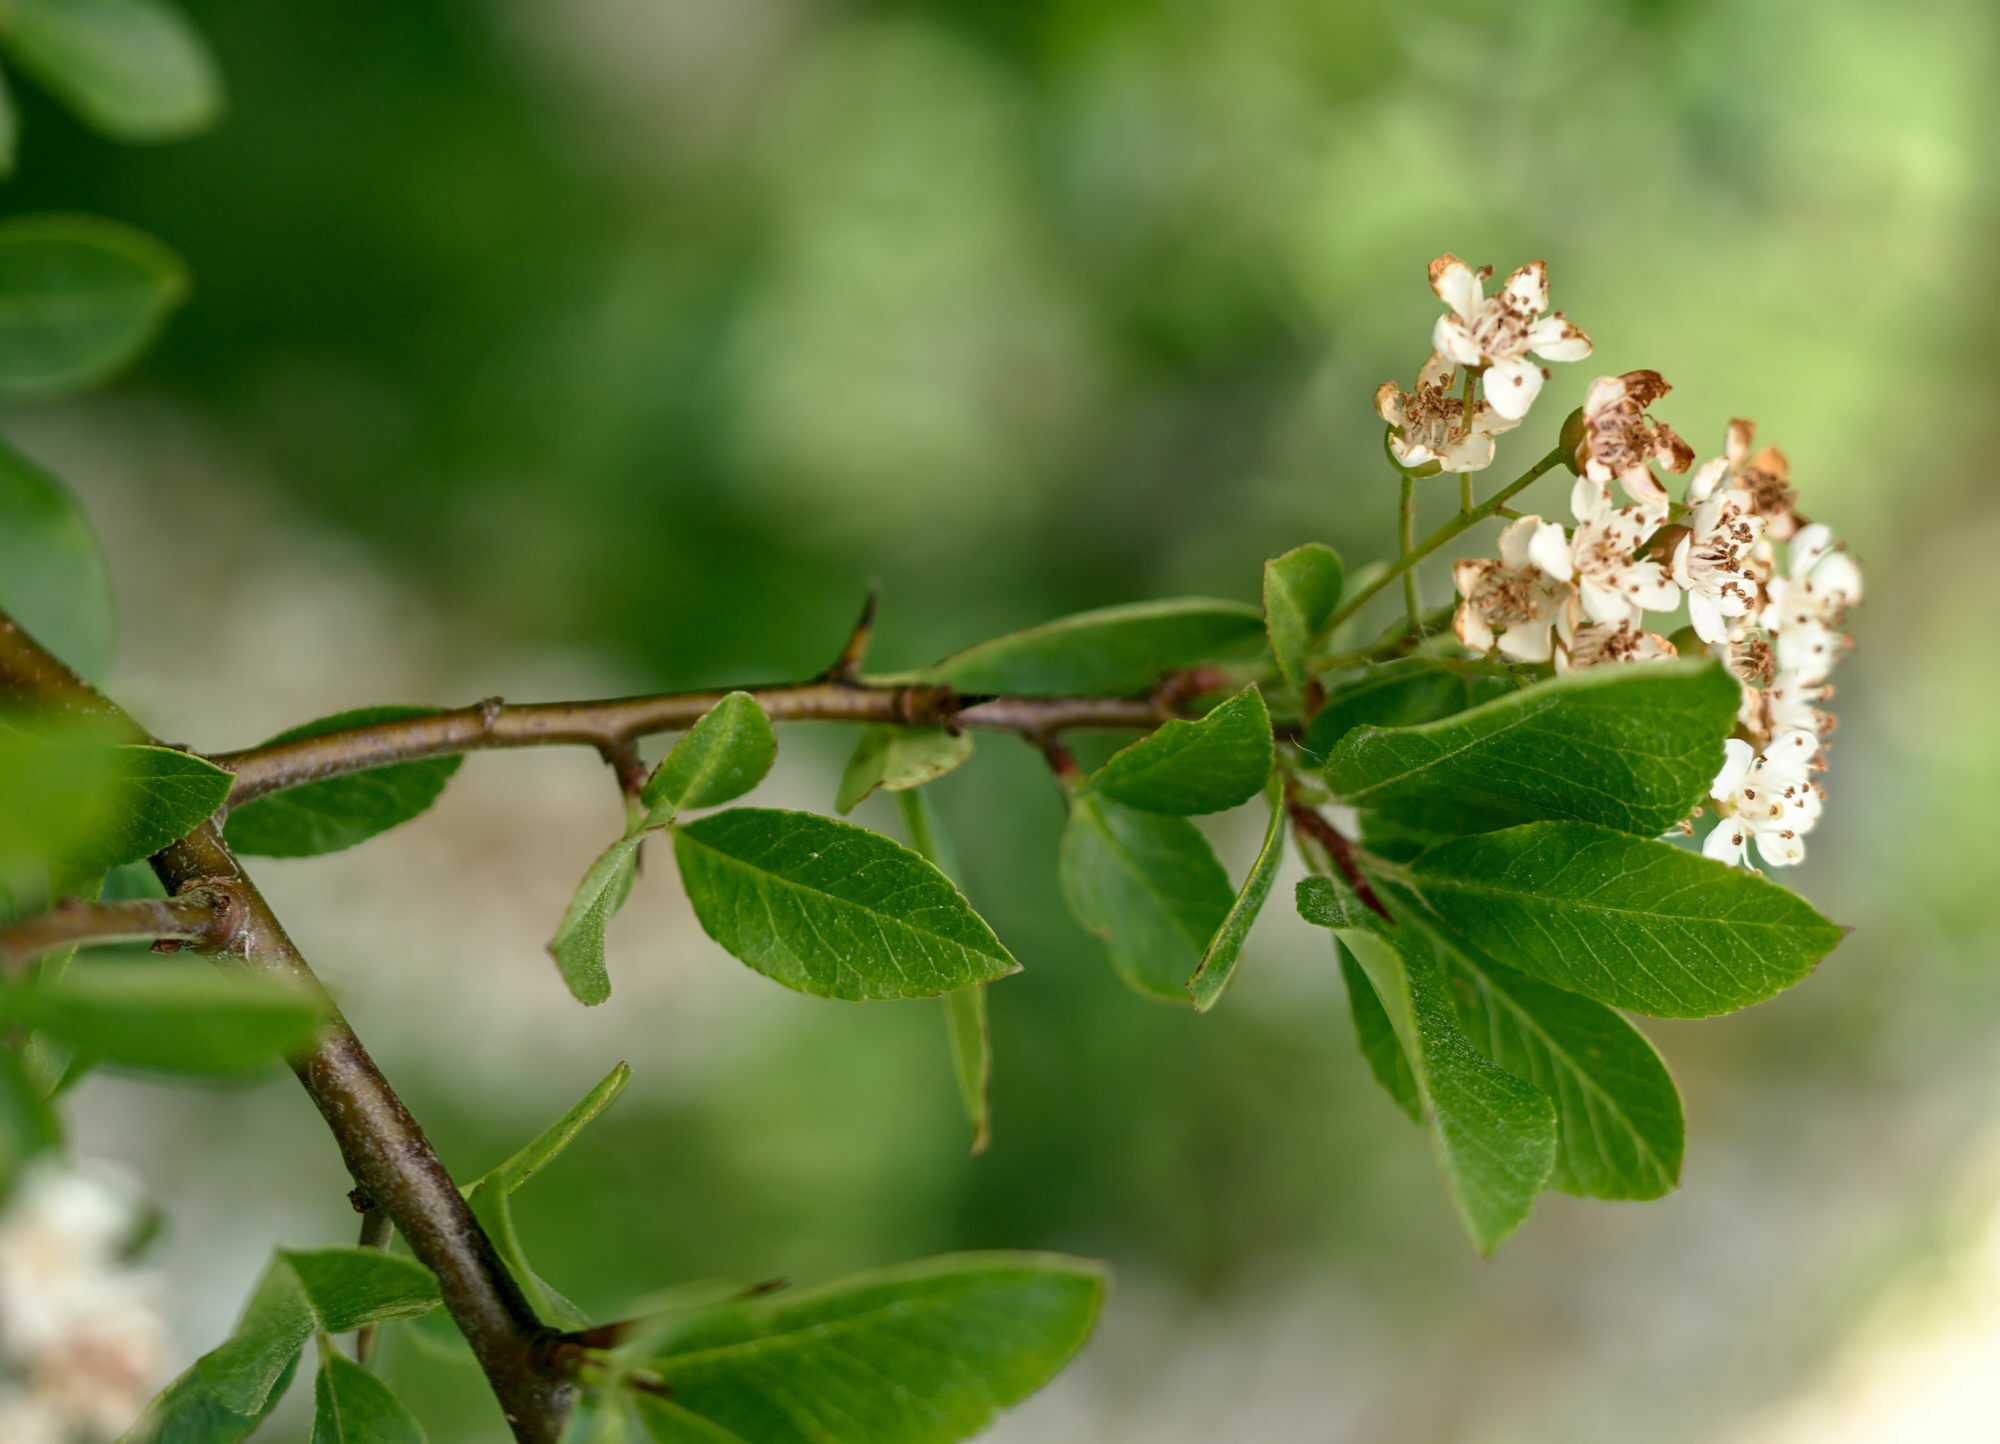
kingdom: Plantae
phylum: Tracheophyta
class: Magnoliopsida
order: Rosales
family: Rosaceae
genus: Pyracantha
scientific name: Pyracantha coccinea
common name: Firethorn
